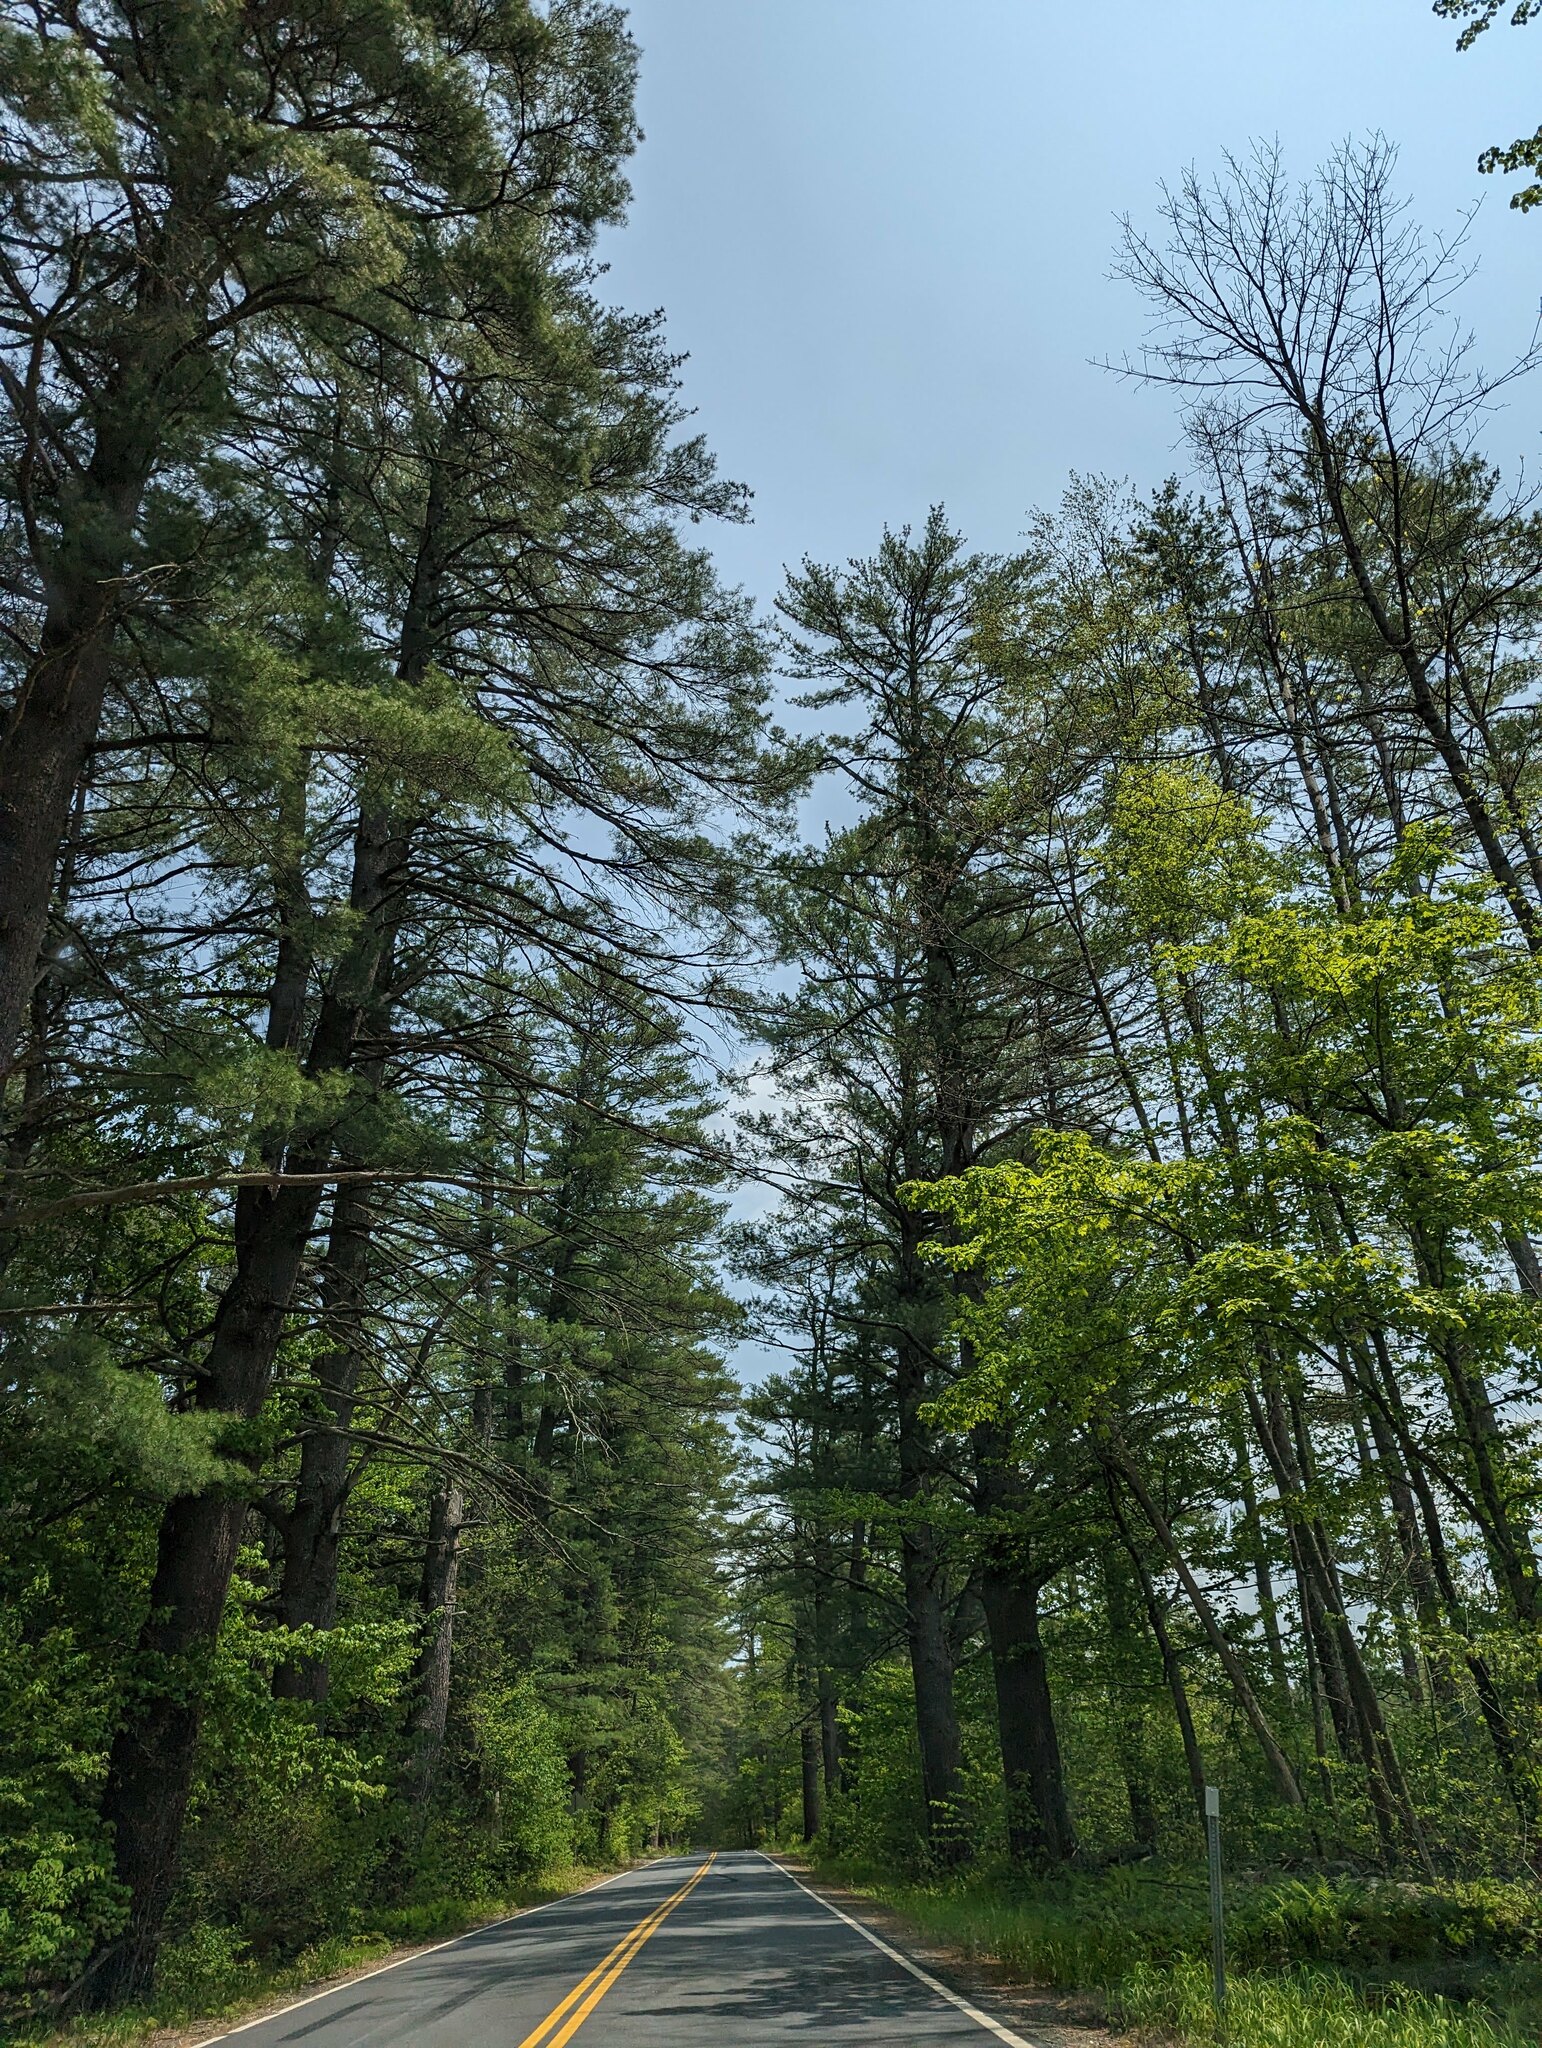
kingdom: Plantae
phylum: Tracheophyta
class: Pinopsida
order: Pinales
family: Pinaceae
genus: Pinus
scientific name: Pinus strobus
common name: Weymouth pine
